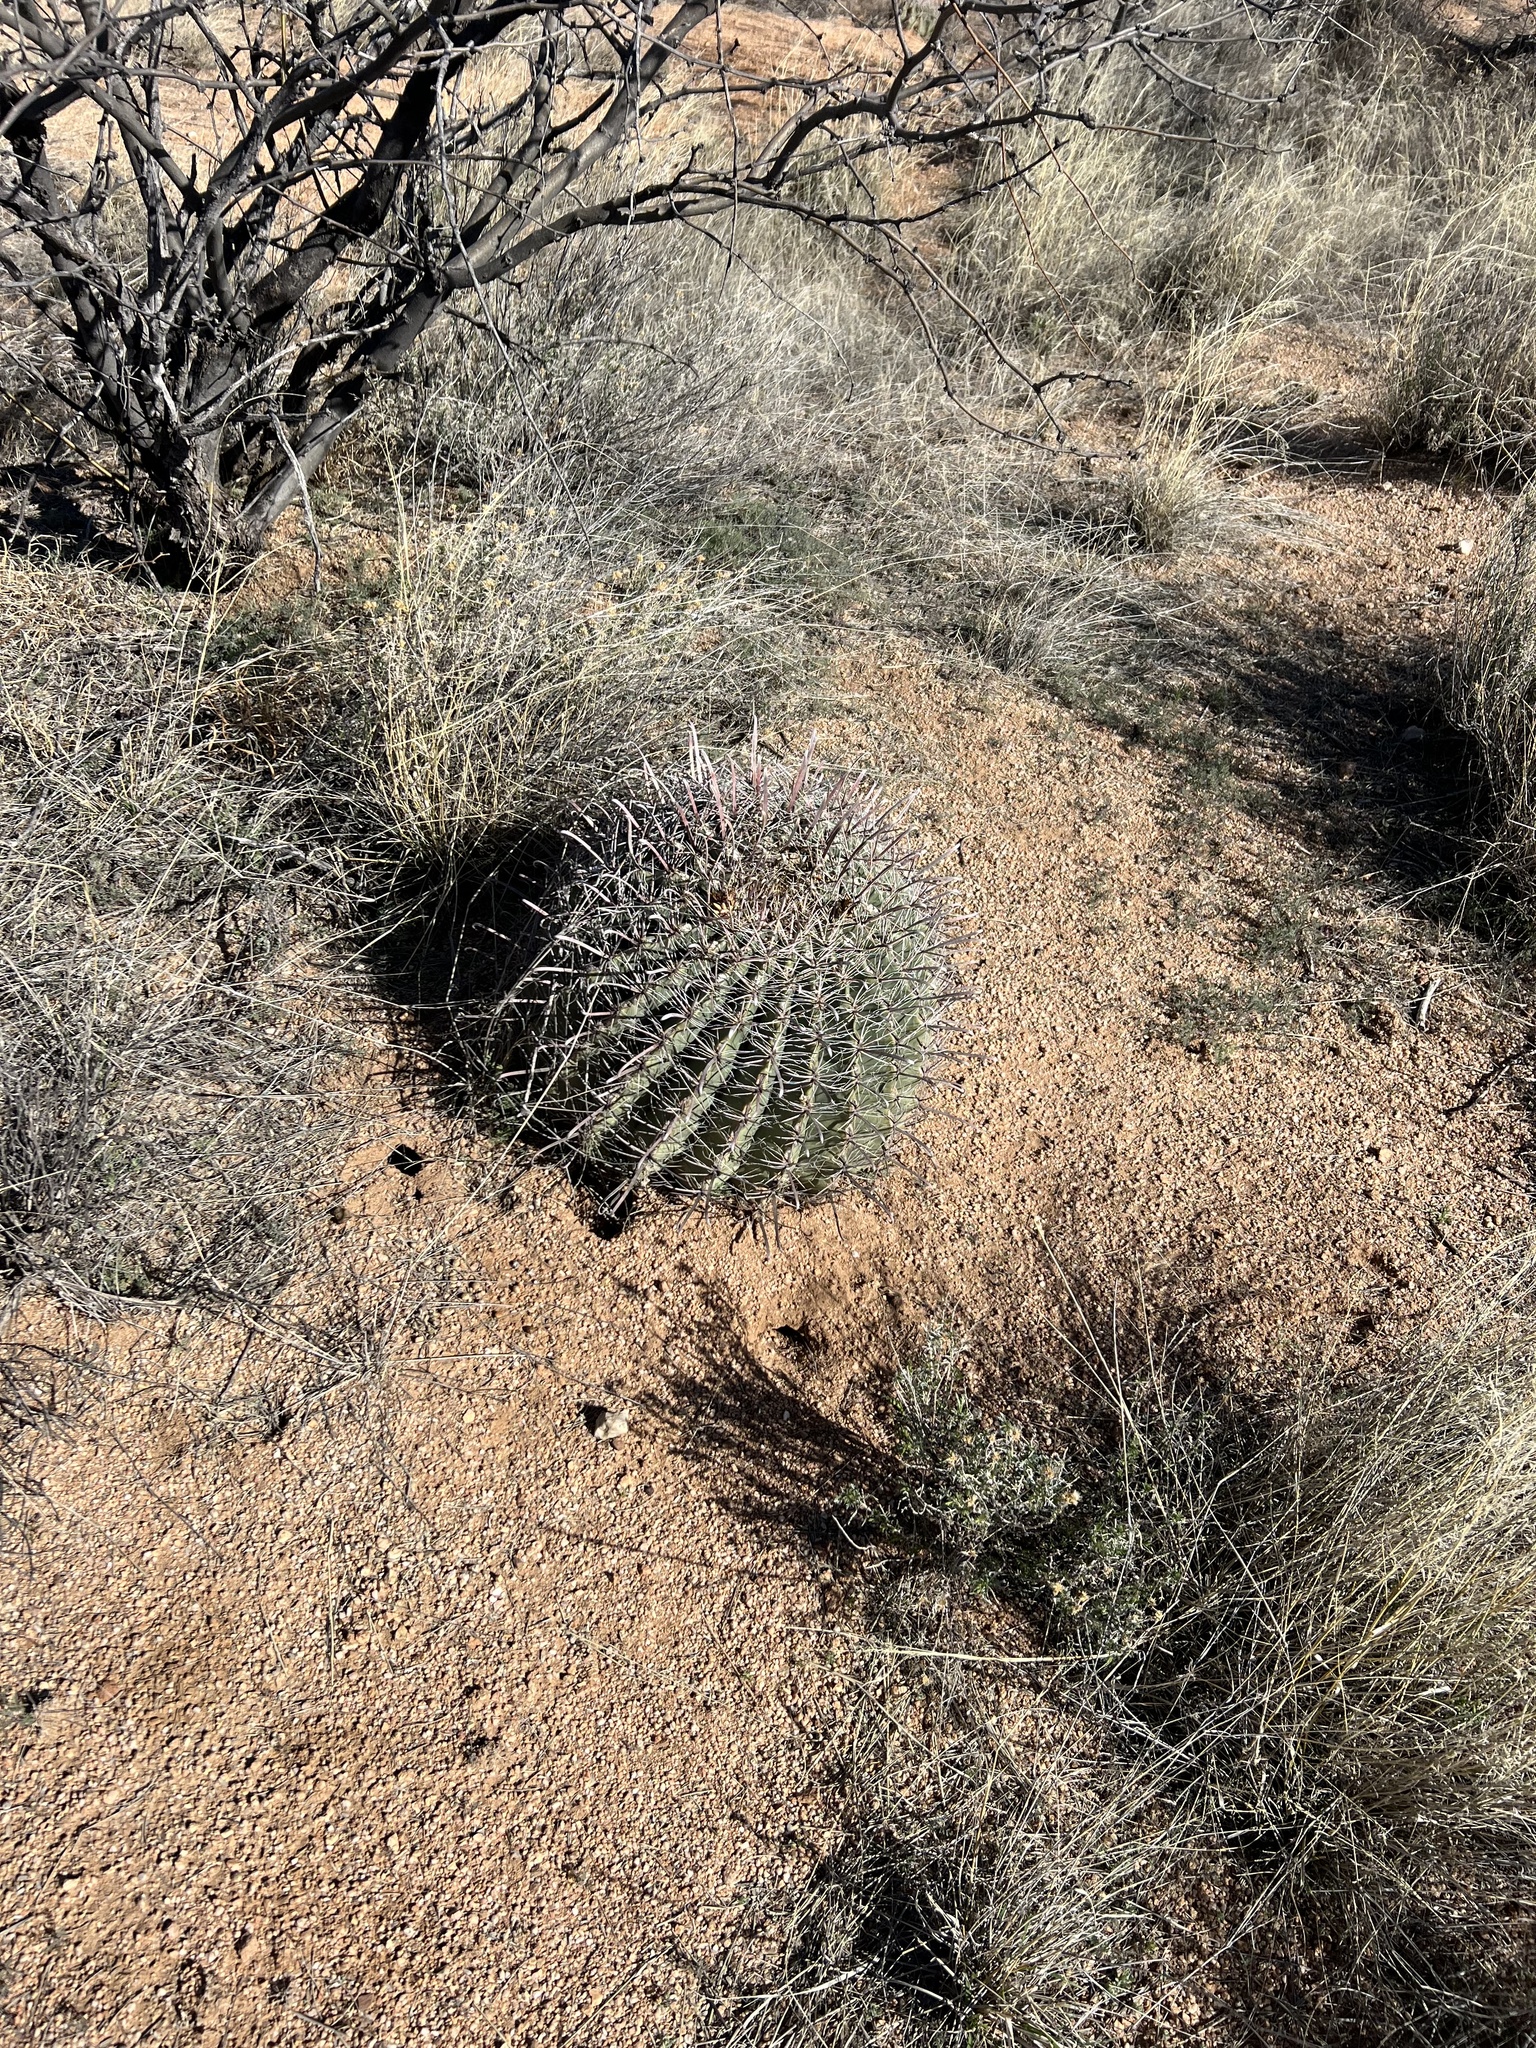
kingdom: Plantae
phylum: Tracheophyta
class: Magnoliopsida
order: Caryophyllales
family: Cactaceae
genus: Ferocactus
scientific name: Ferocactus wislizeni
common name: Candy barrel cactus
